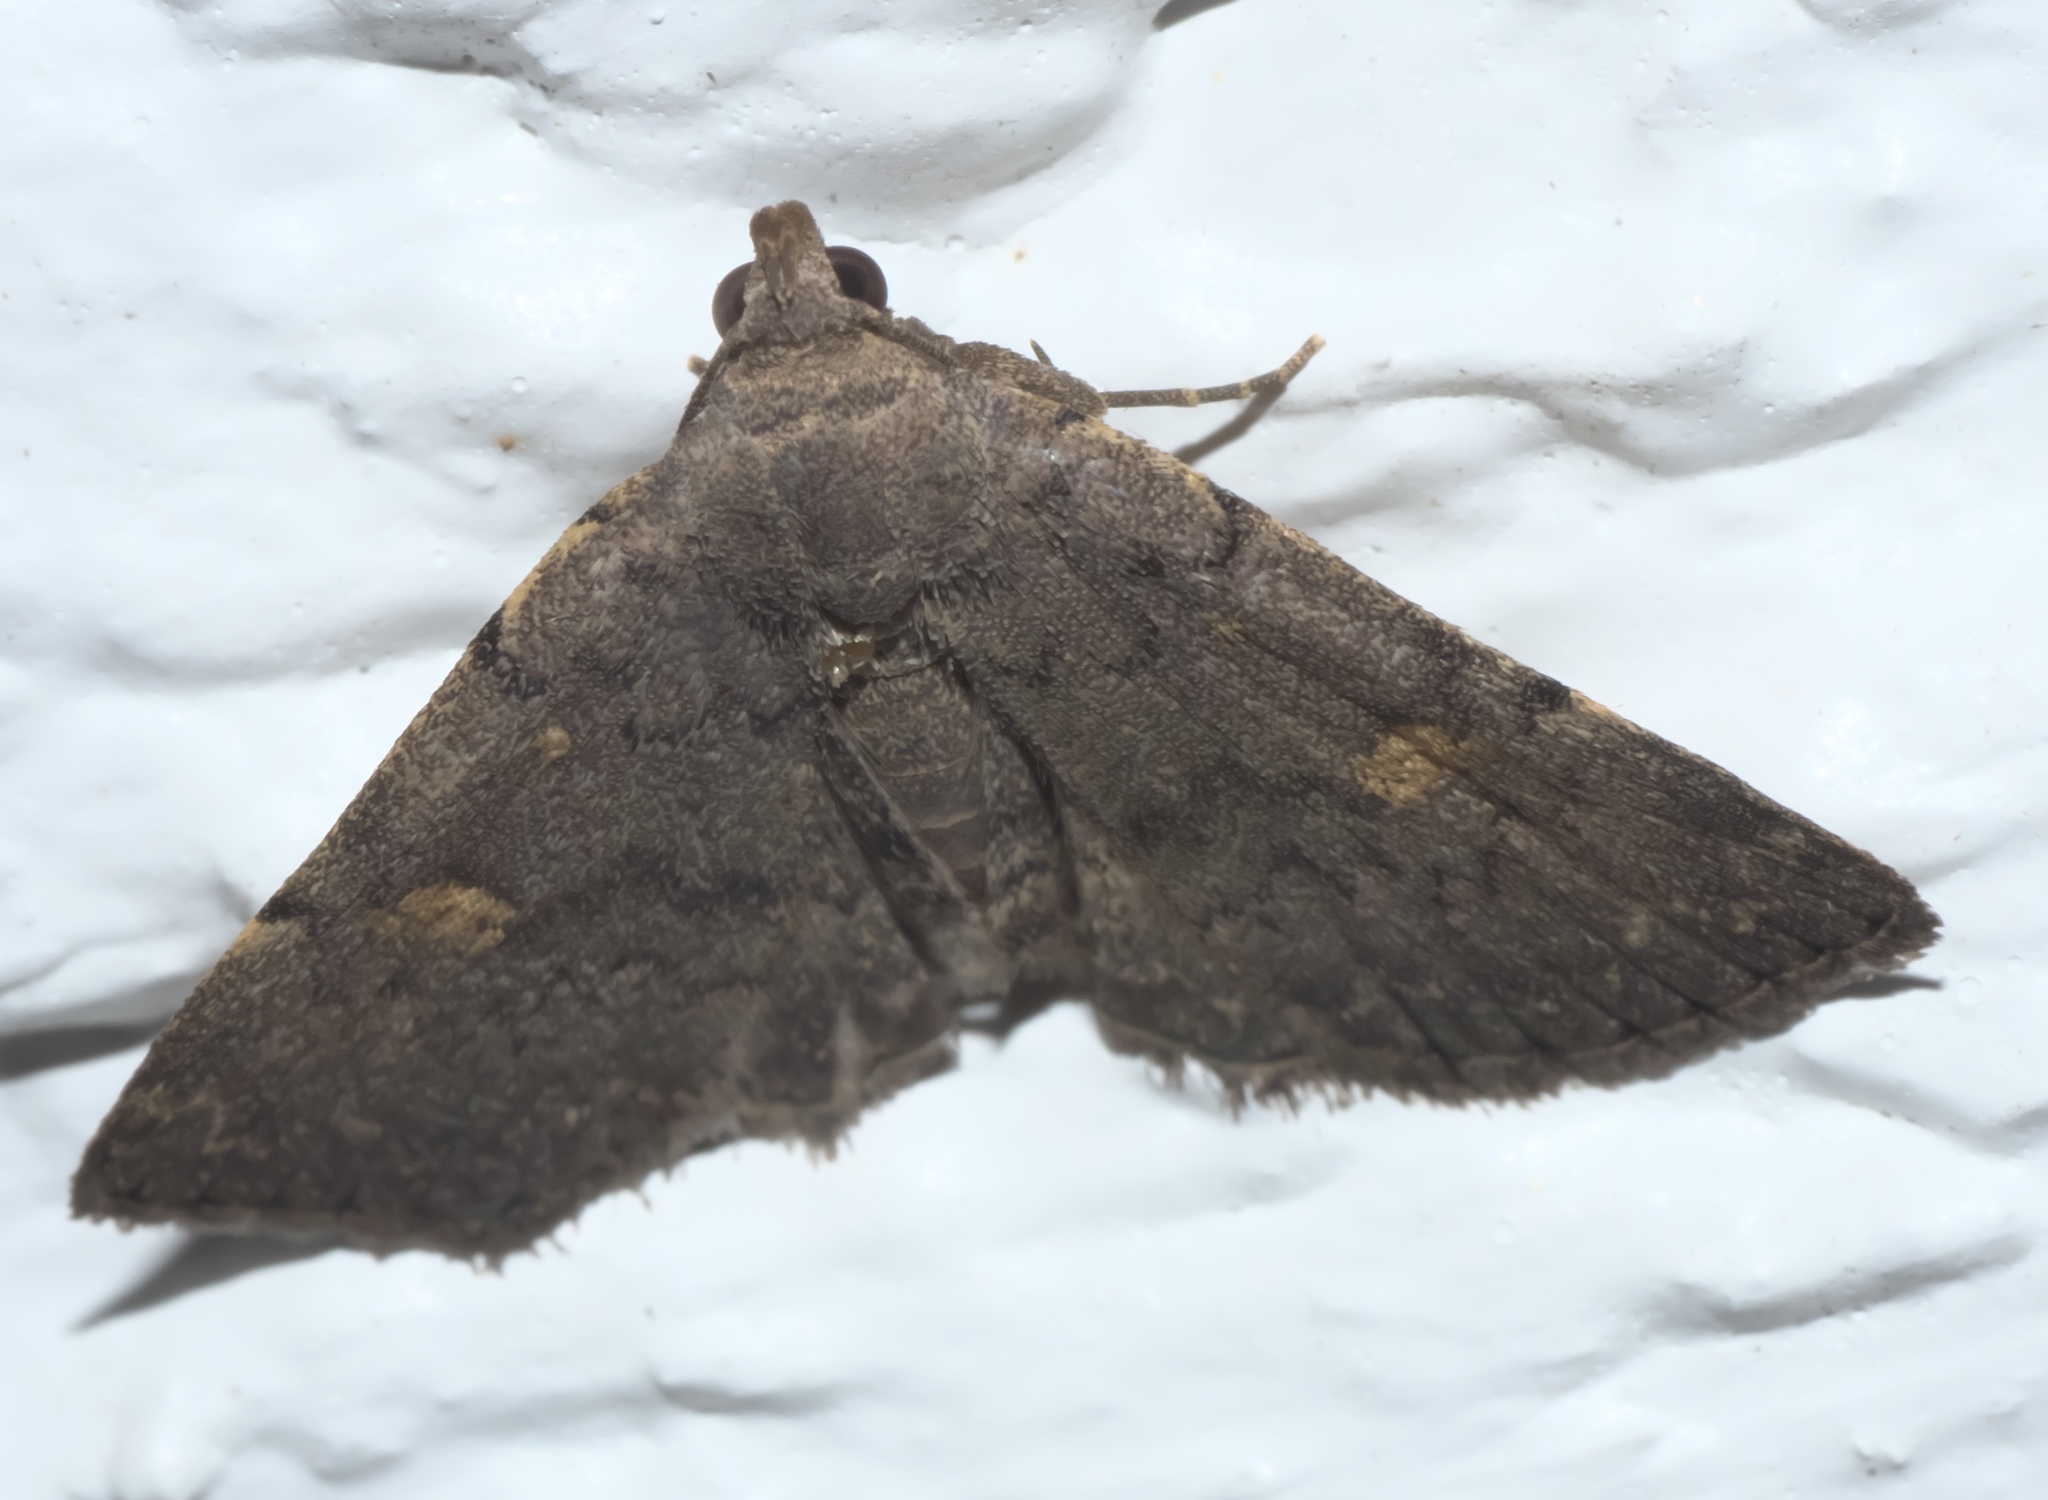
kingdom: Animalia
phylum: Arthropoda
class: Insecta
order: Lepidoptera
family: Erebidae
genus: Idia
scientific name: Idia aemula
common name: Common idia moth
